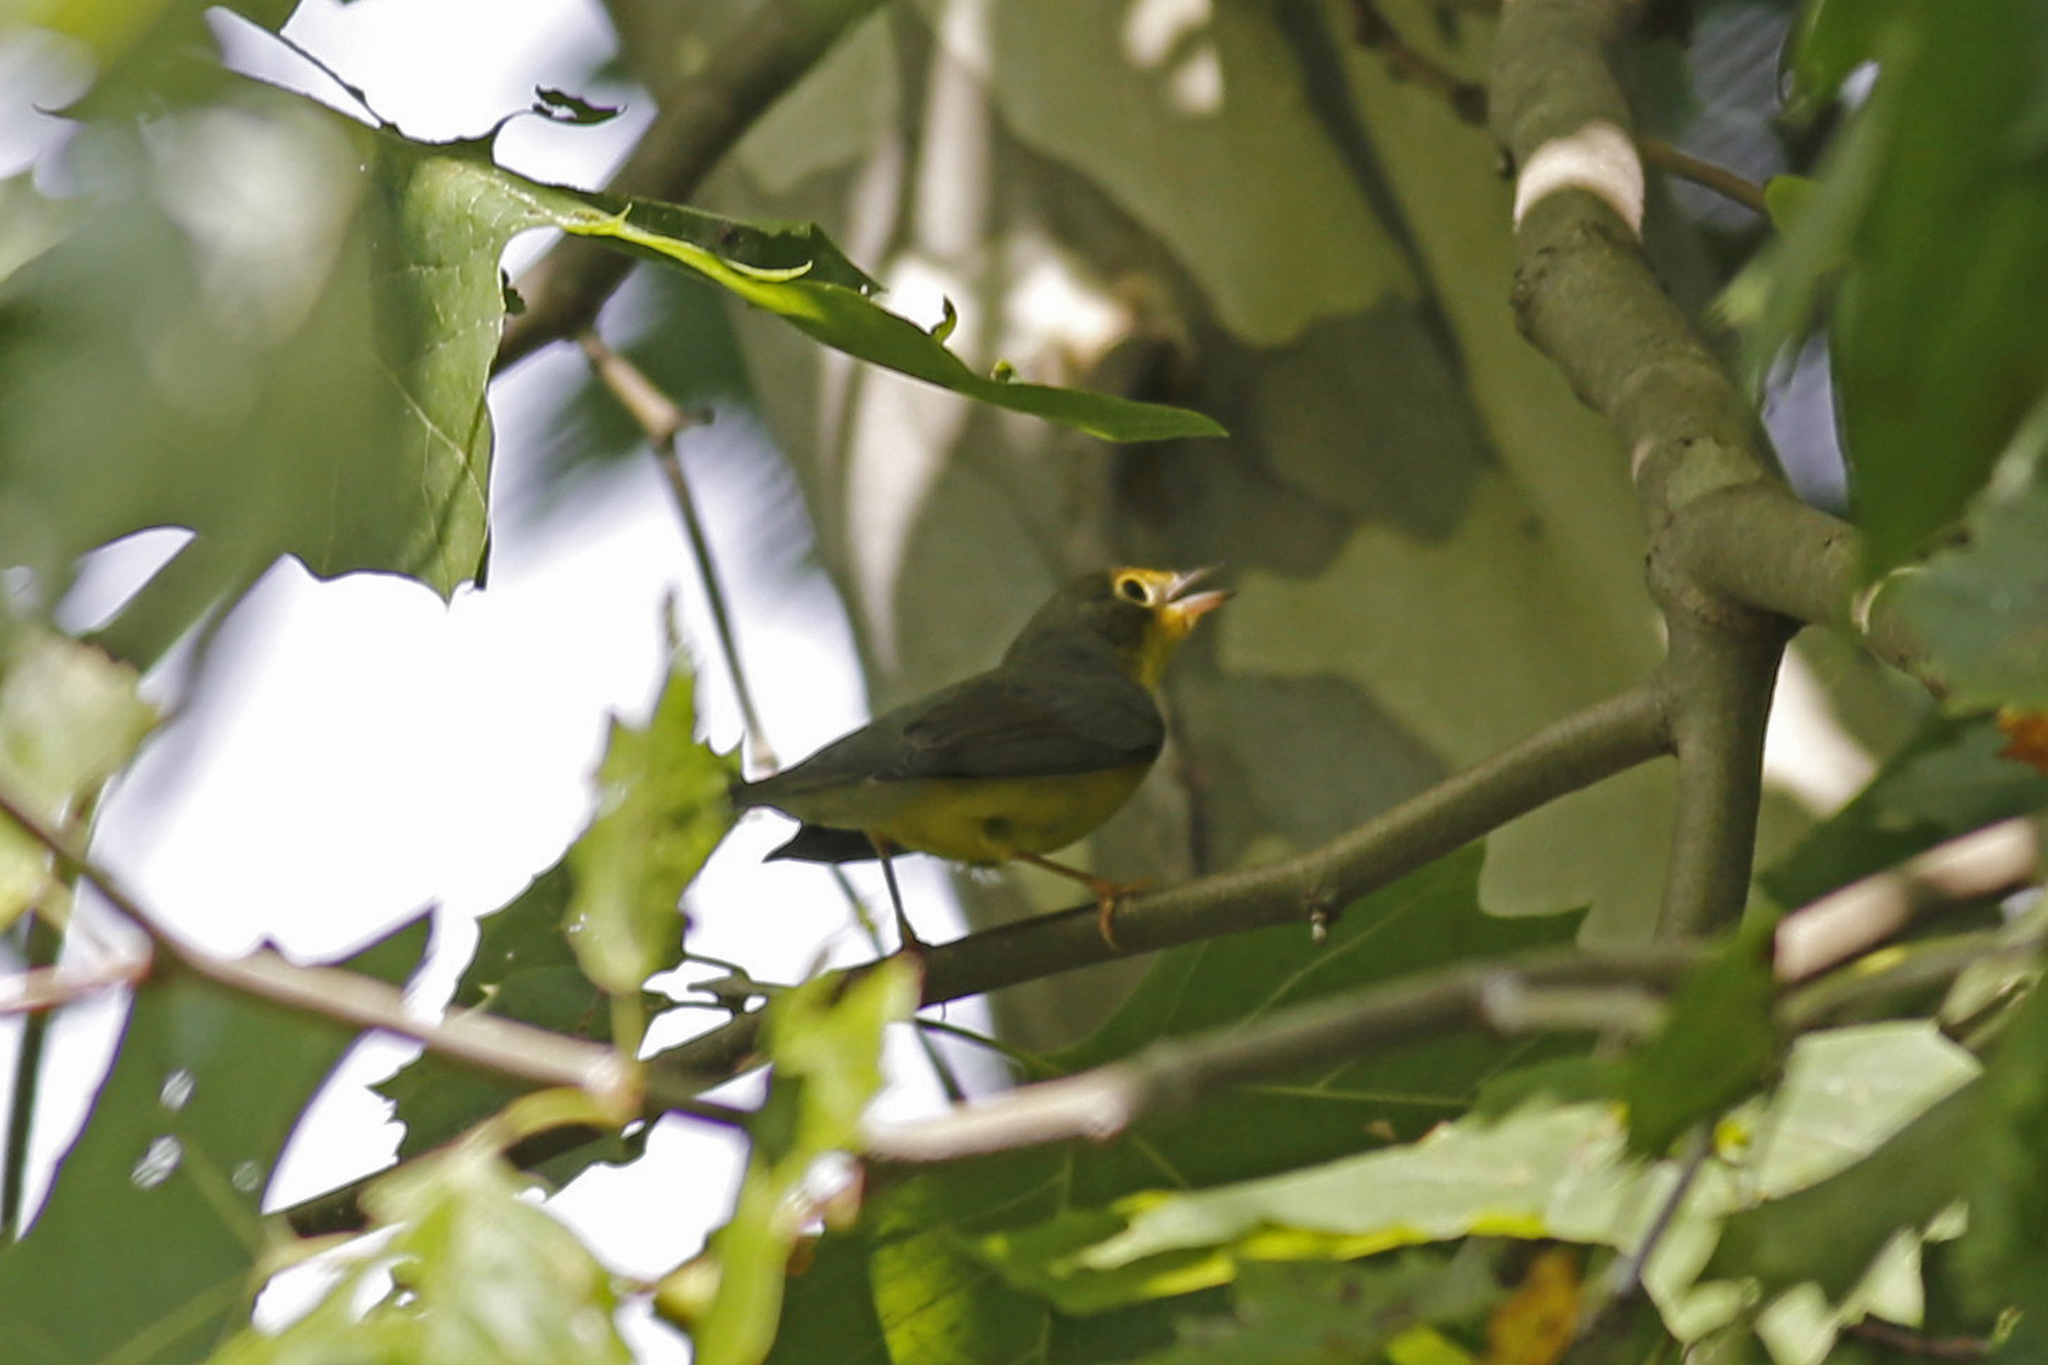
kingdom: Animalia
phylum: Chordata
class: Aves
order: Passeriformes
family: Parulidae
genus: Cardellina
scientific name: Cardellina canadensis
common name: Canada warbler
